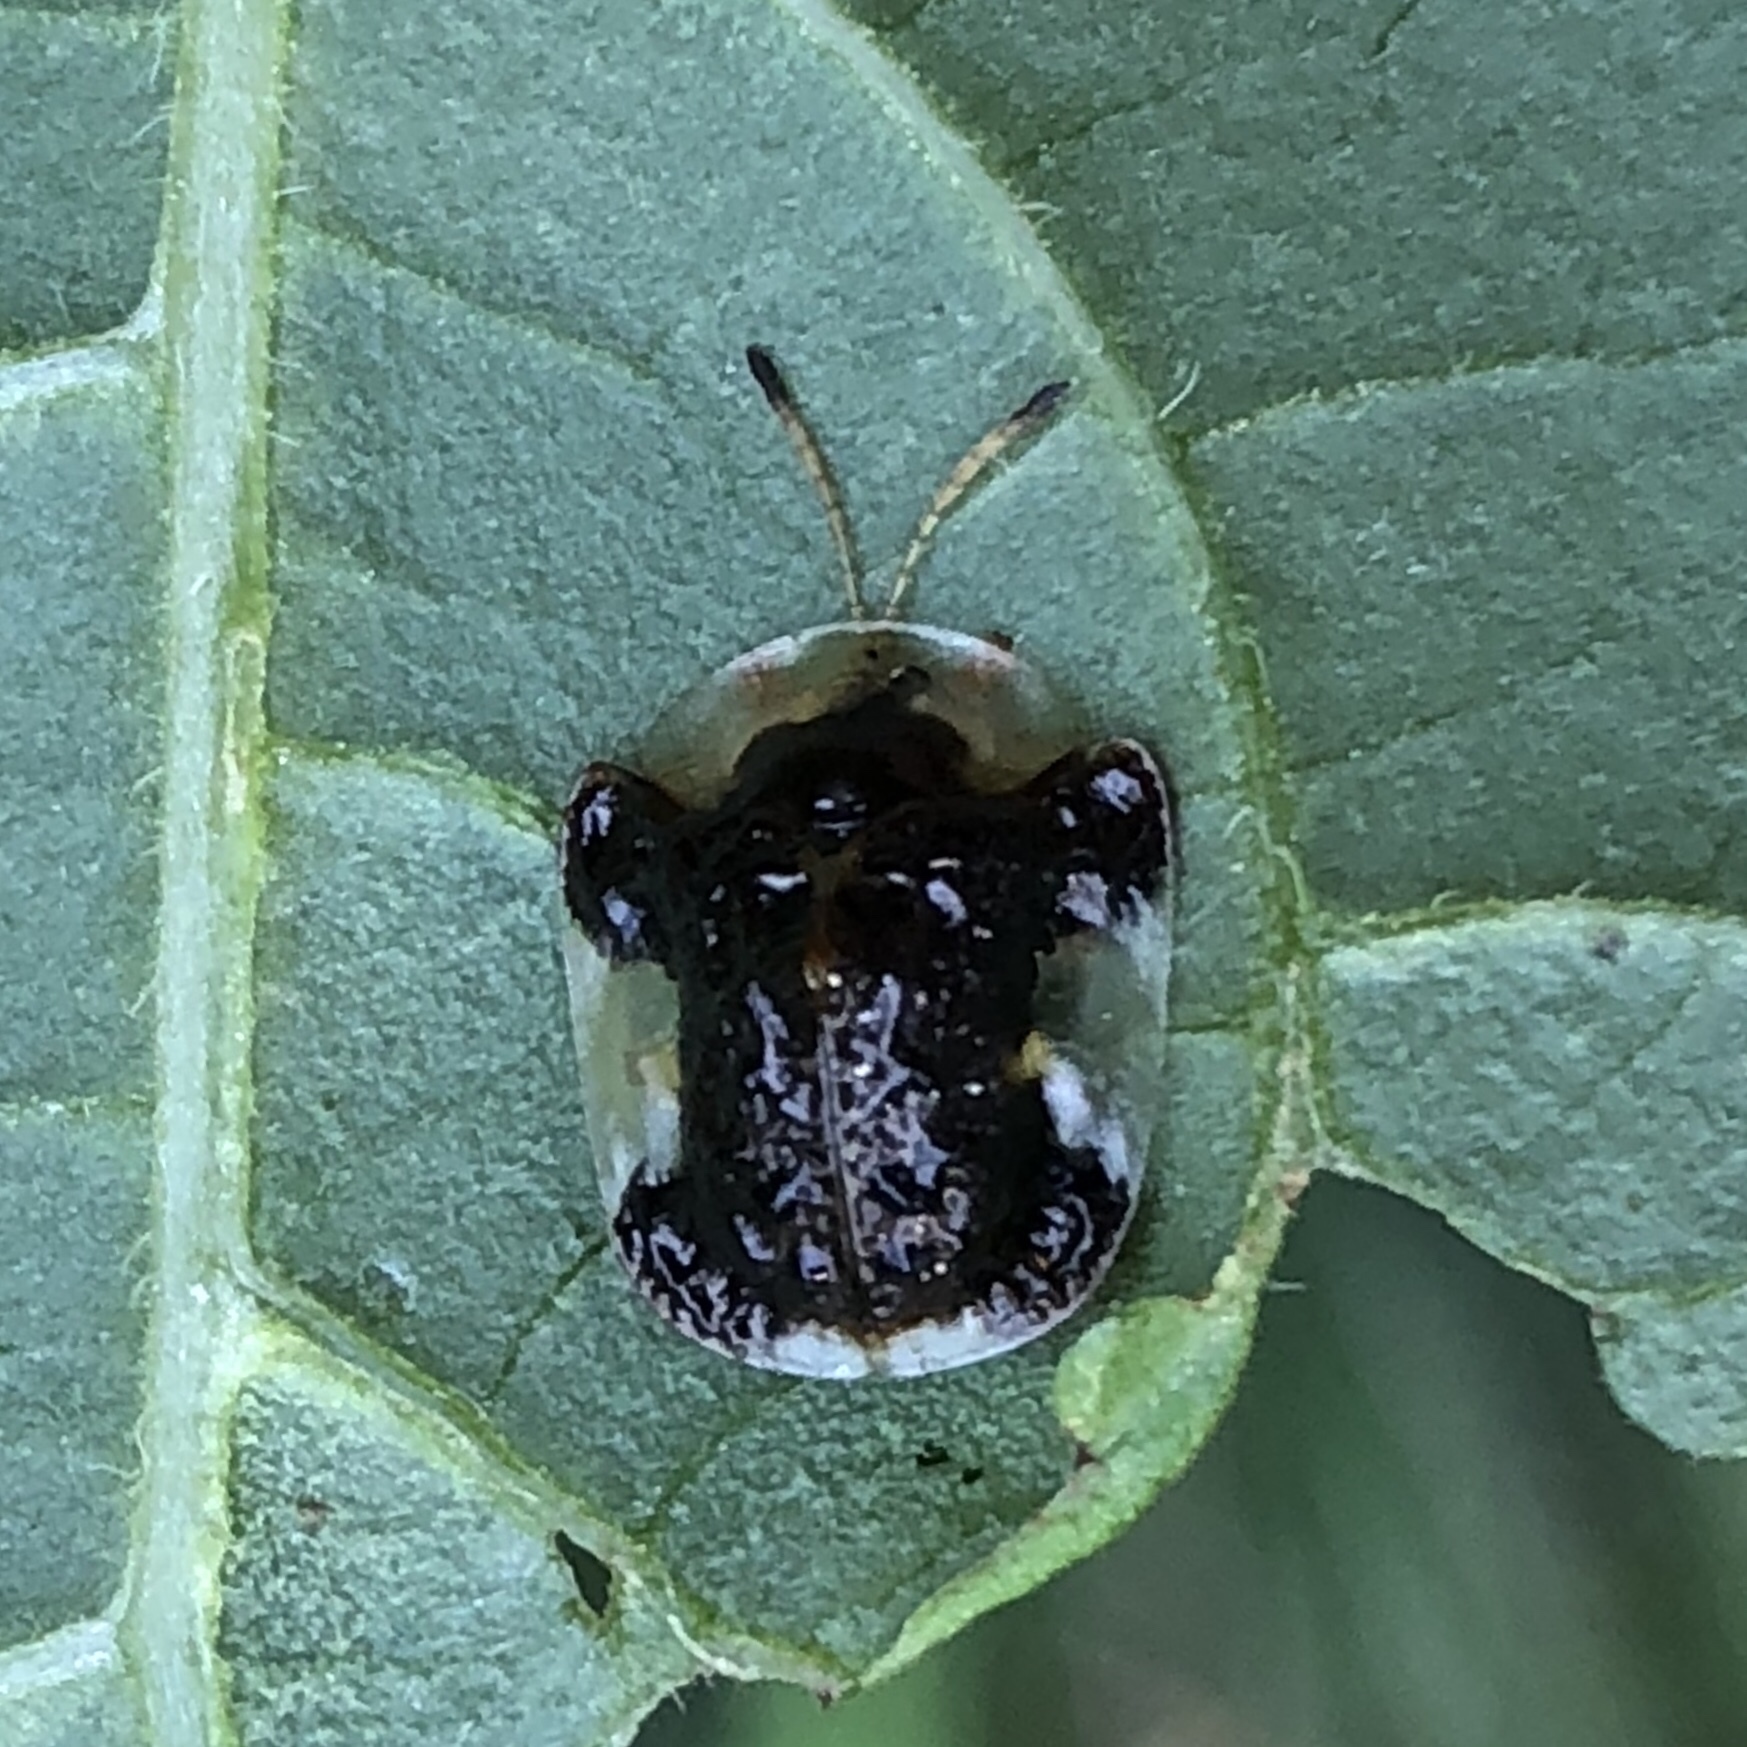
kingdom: Animalia
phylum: Arthropoda
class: Insecta
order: Coleoptera
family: Chrysomelidae
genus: Helocassis
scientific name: Helocassis clavata
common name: Clavate tortoise beetle
